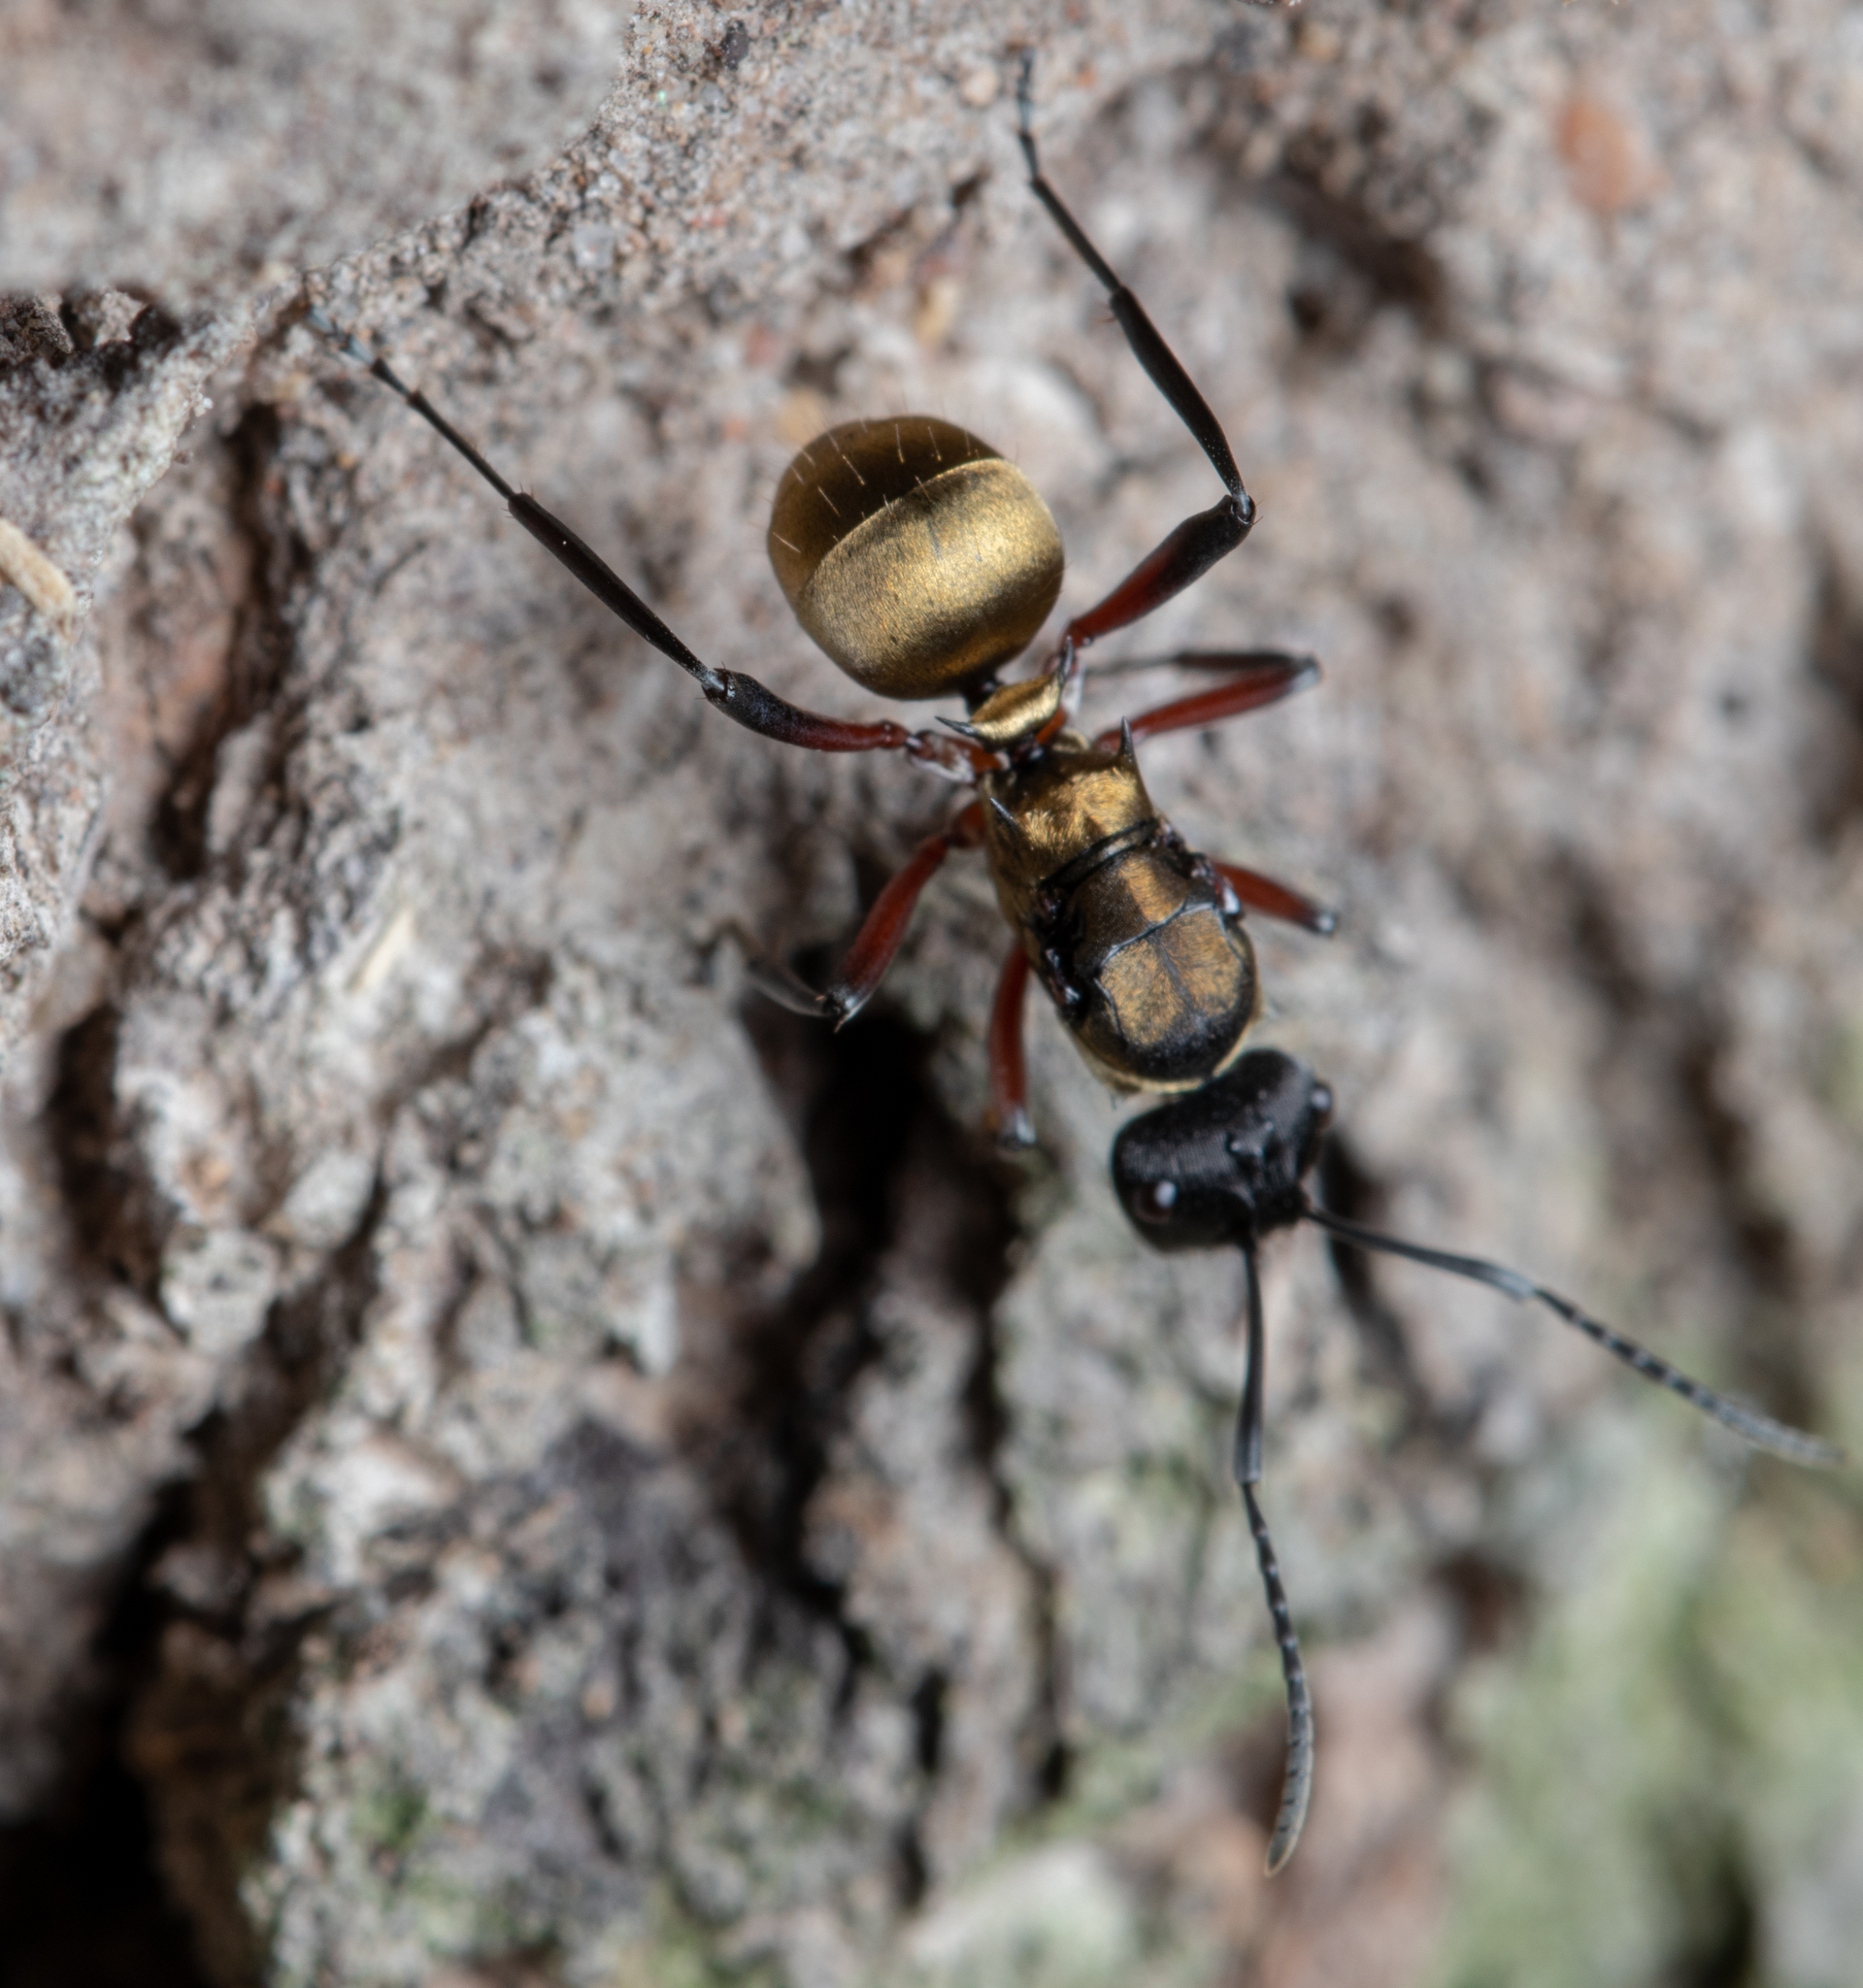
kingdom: Animalia
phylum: Arthropoda
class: Insecta
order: Hymenoptera
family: Formicidae
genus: Polyrhachis
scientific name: Polyrhachis rufifemur
